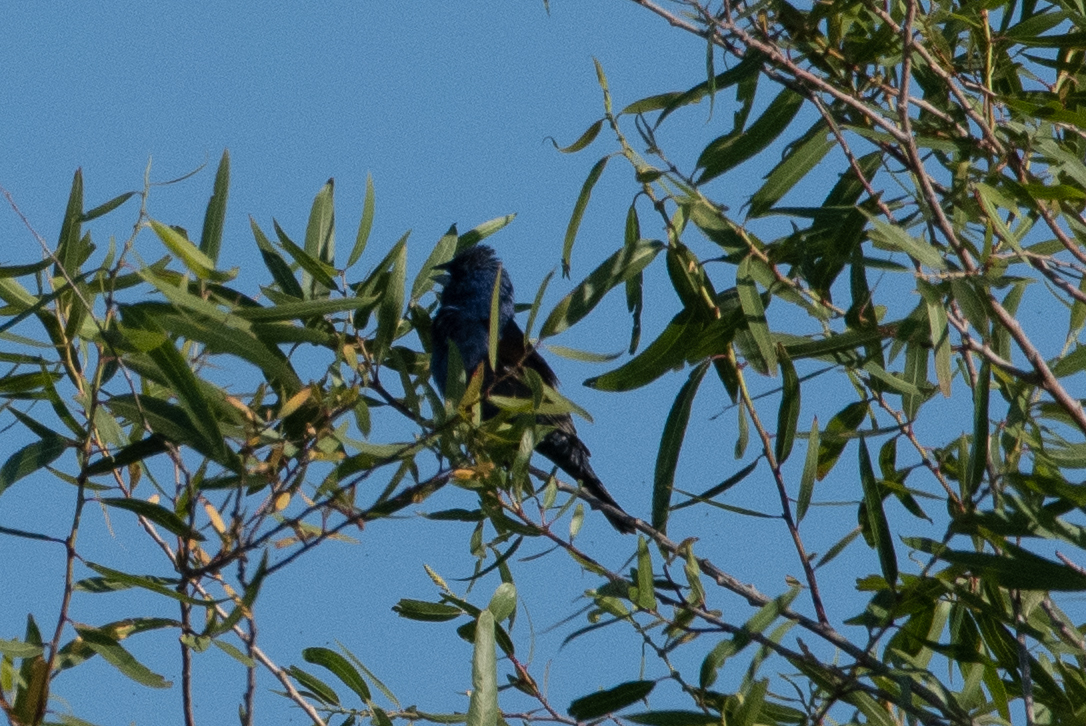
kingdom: Animalia
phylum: Chordata
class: Aves
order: Passeriformes
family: Cardinalidae
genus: Passerina
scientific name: Passerina caerulea
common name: Blue grosbeak
